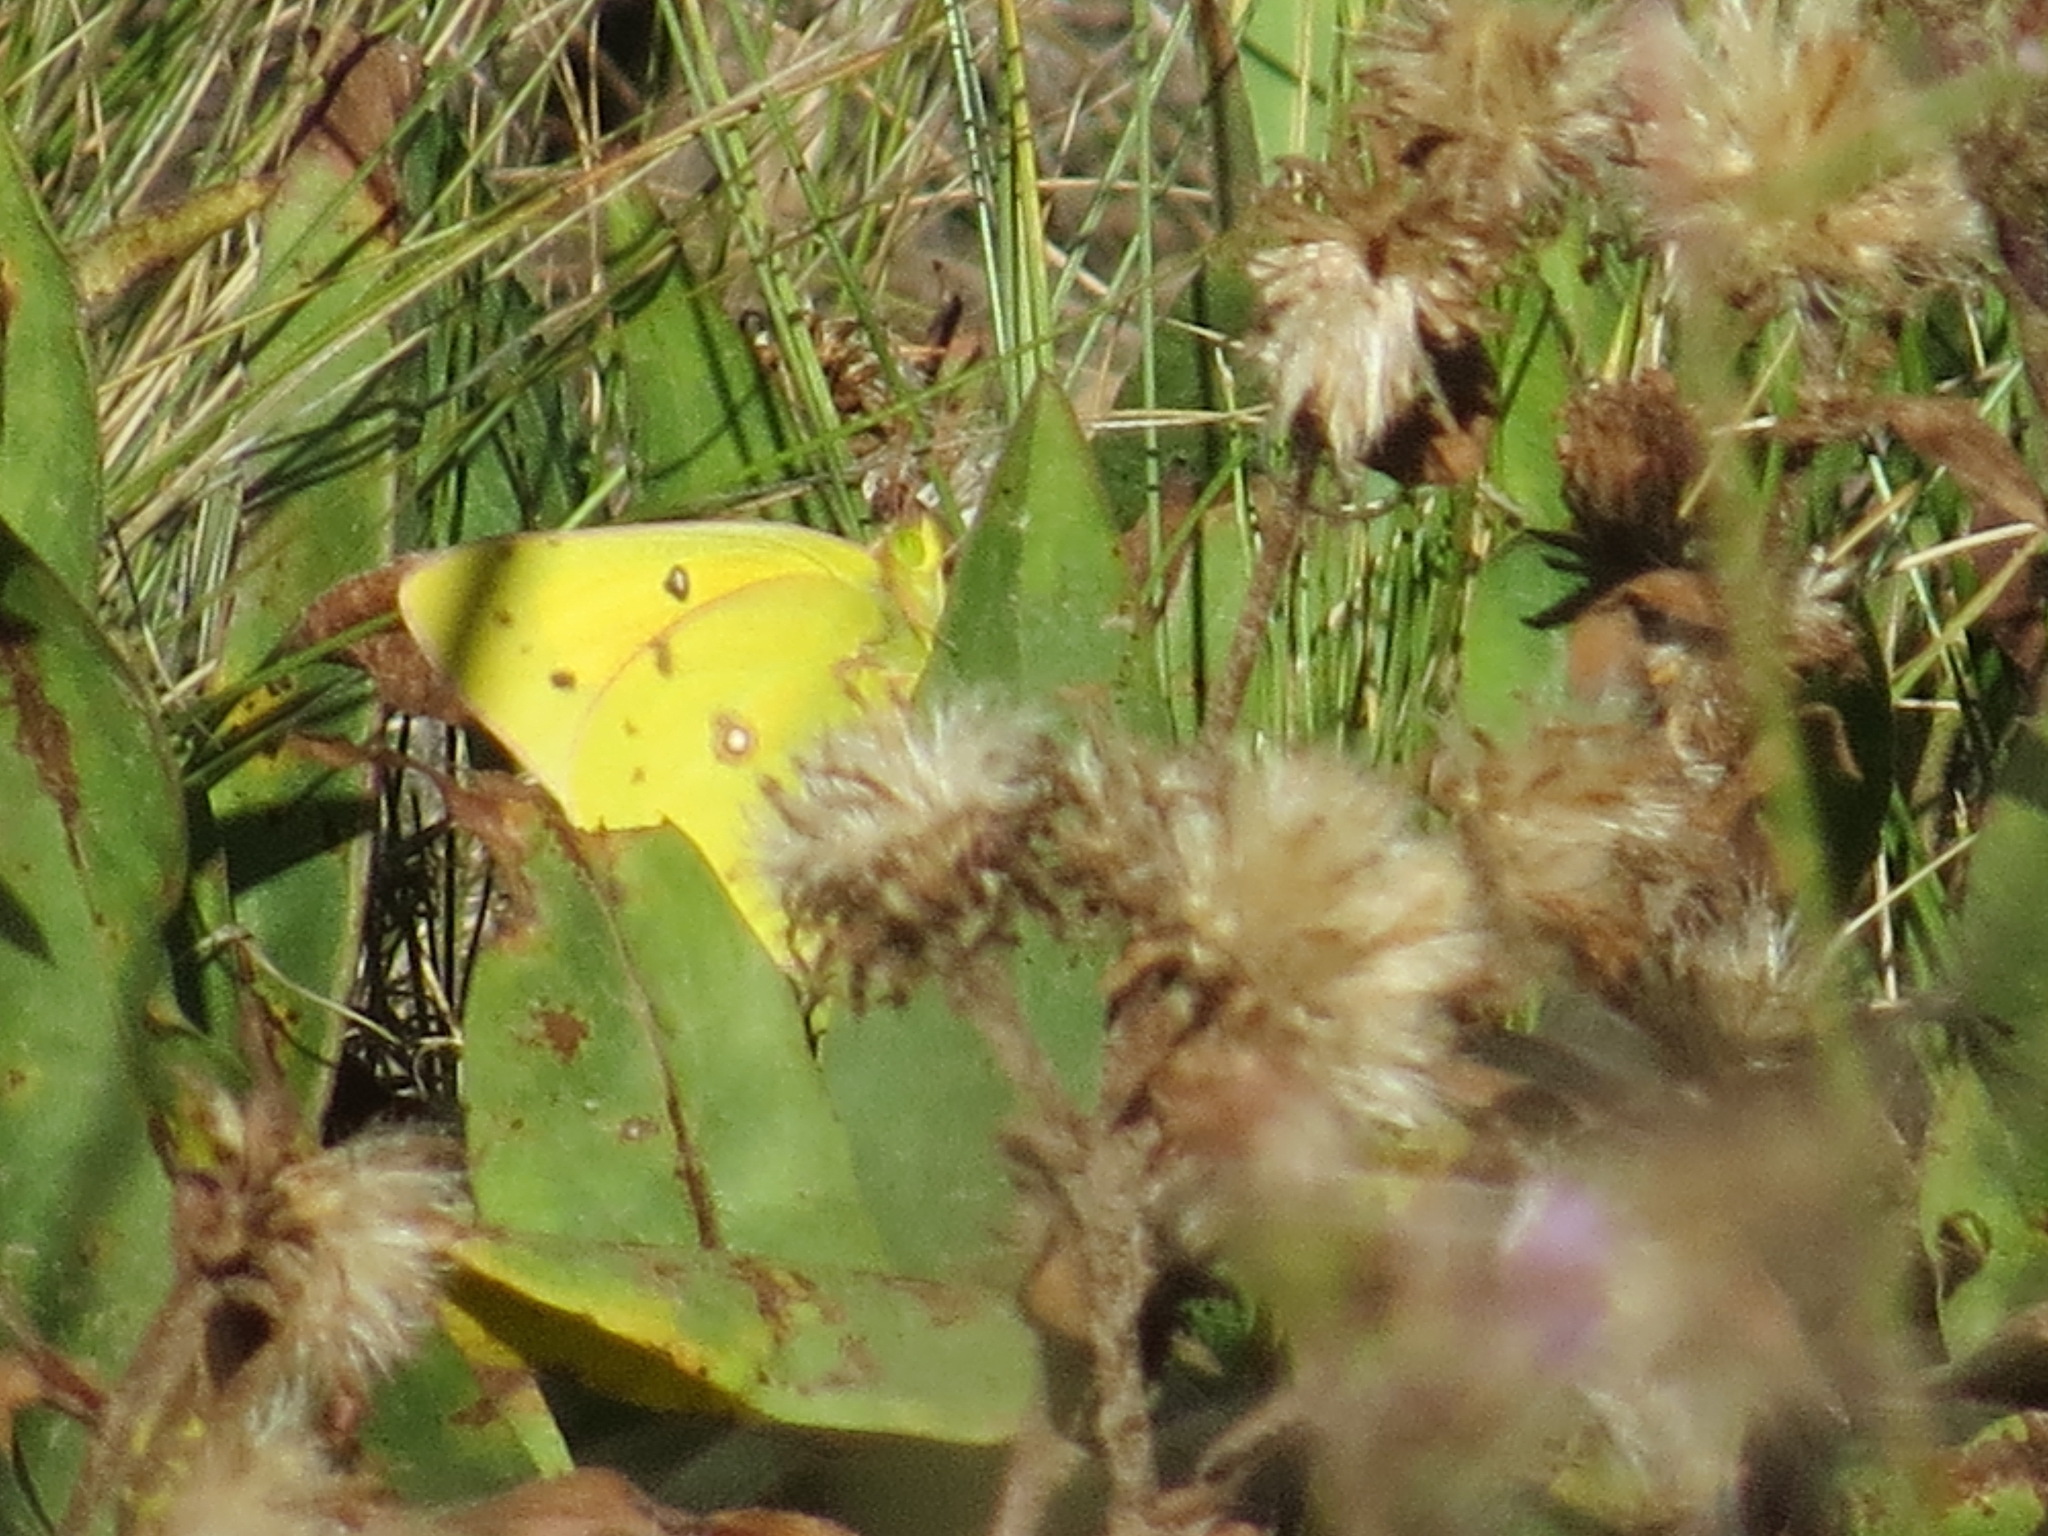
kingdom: Animalia
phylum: Arthropoda
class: Insecta
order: Lepidoptera
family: Pieridae
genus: Colias
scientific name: Colias eurytheme
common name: Alfalfa butterfly
